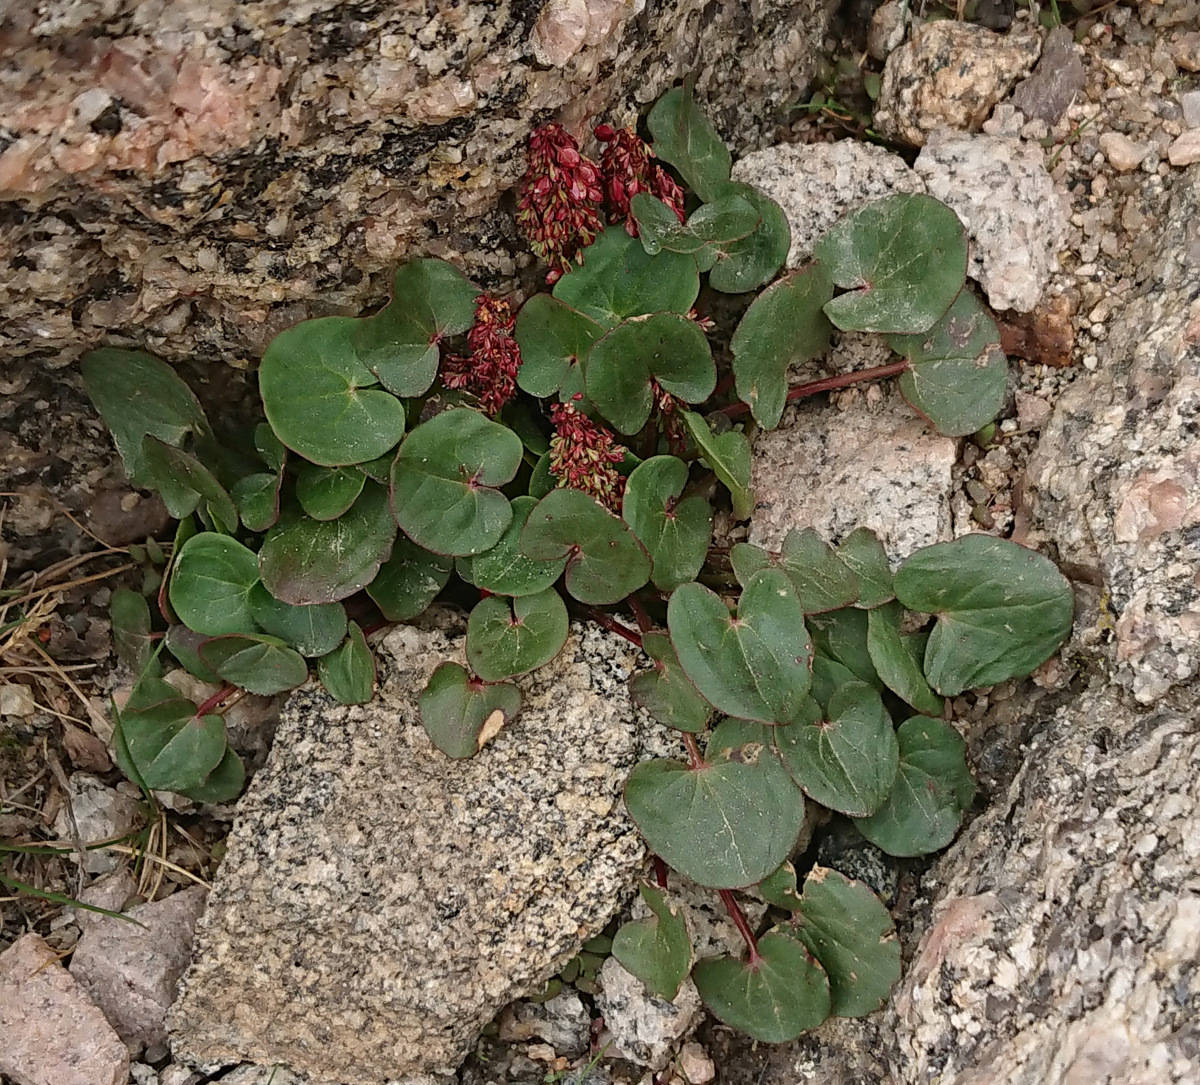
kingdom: Plantae
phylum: Tracheophyta
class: Magnoliopsida
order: Caryophyllales
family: Polygonaceae
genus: Oxyria
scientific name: Oxyria digyna
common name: Alpine mountain-sorrel
